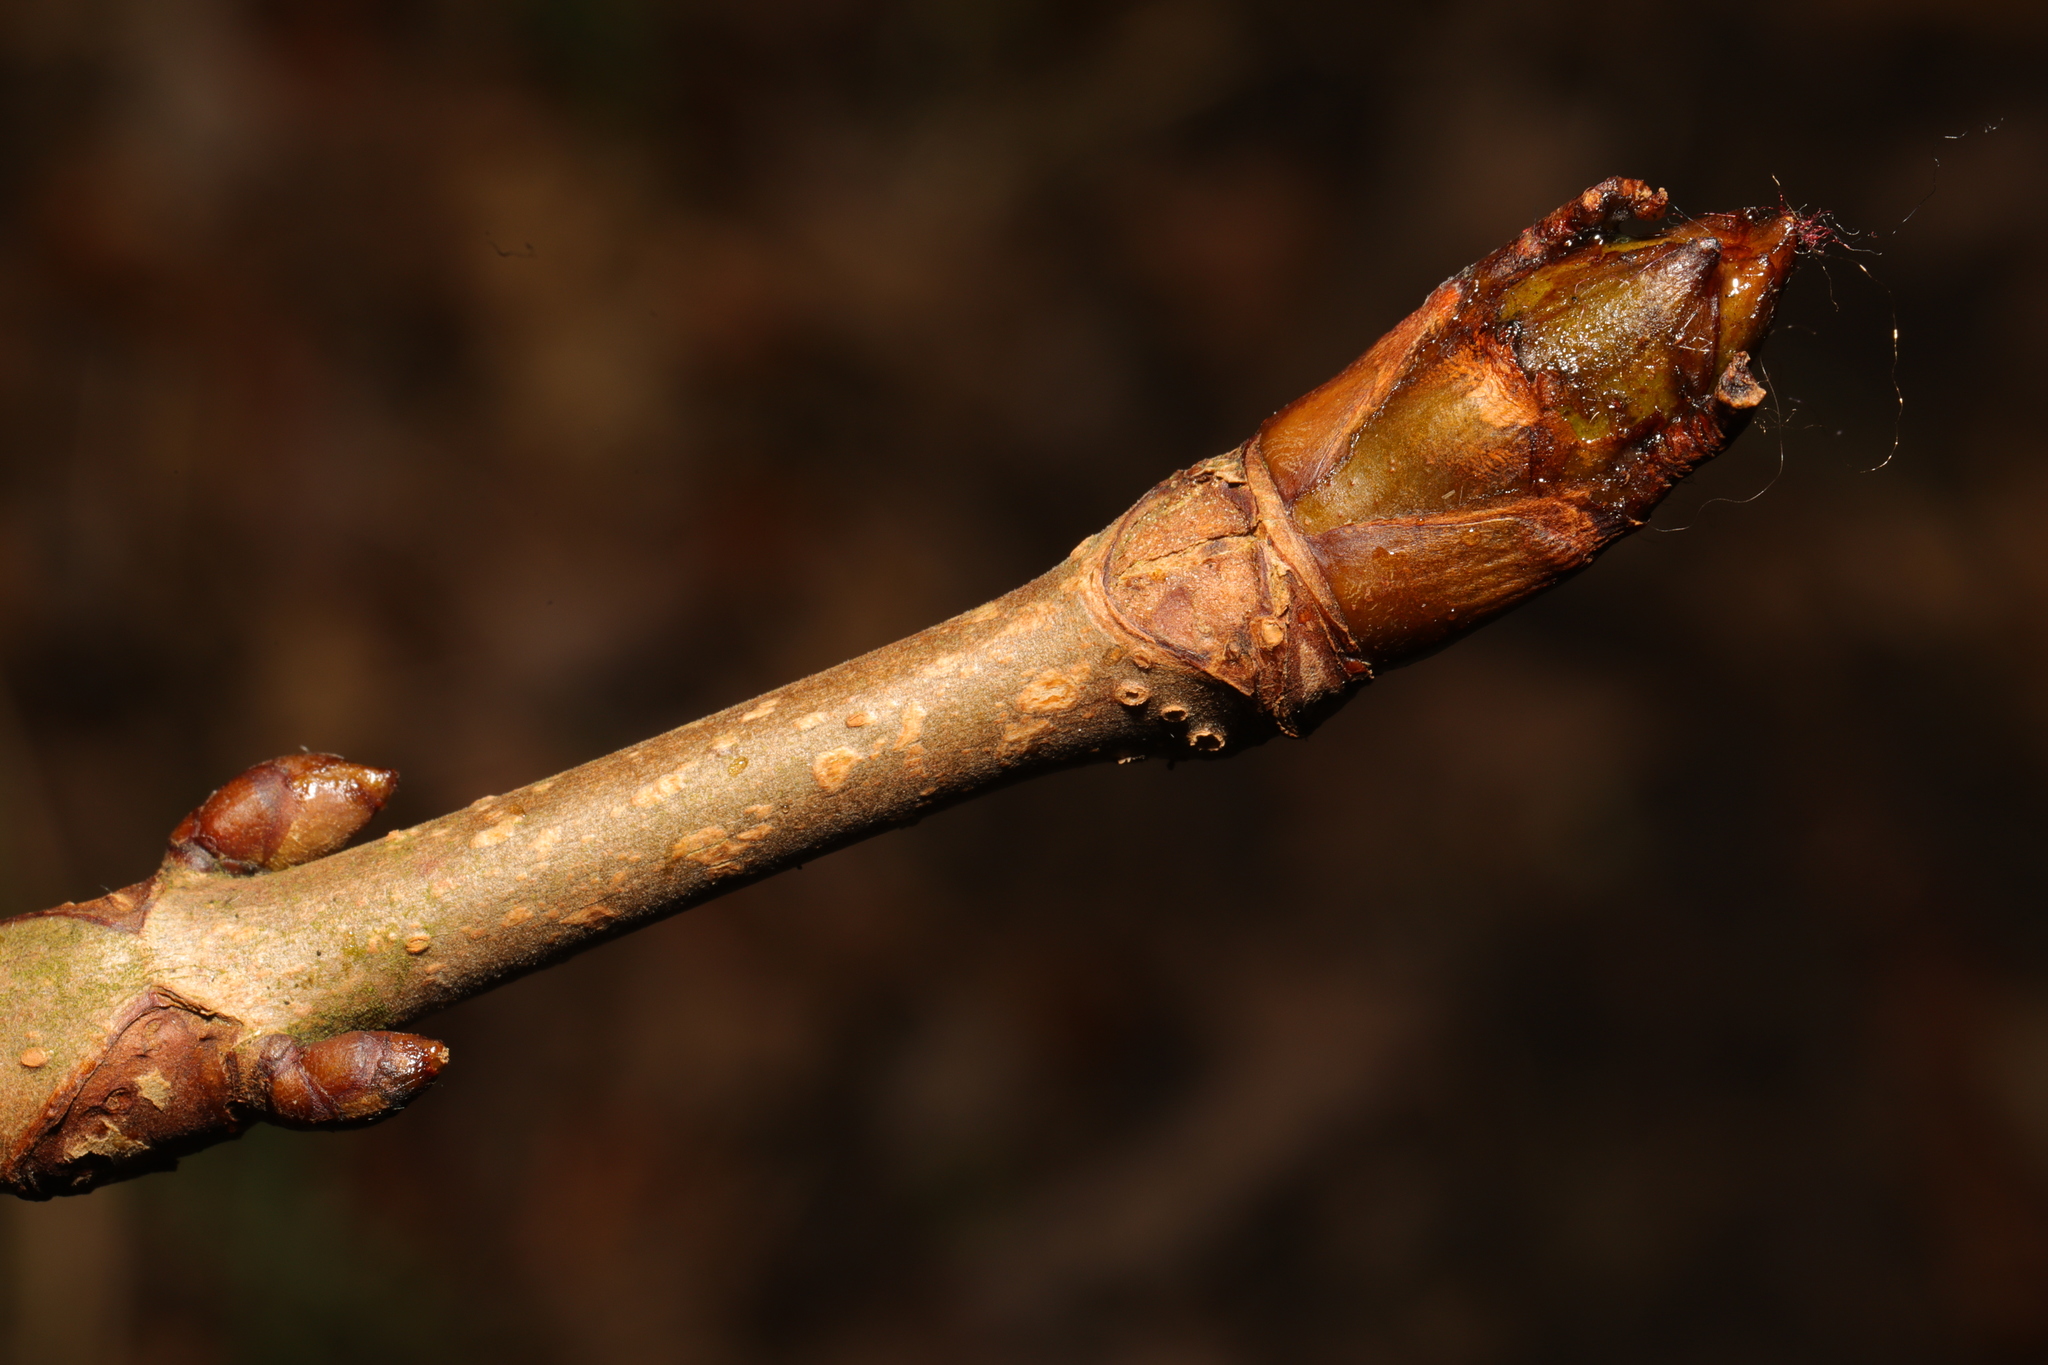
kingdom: Plantae
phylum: Tracheophyta
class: Magnoliopsida
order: Sapindales
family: Sapindaceae
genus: Aesculus
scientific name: Aesculus hippocastanum
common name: Horse-chestnut
